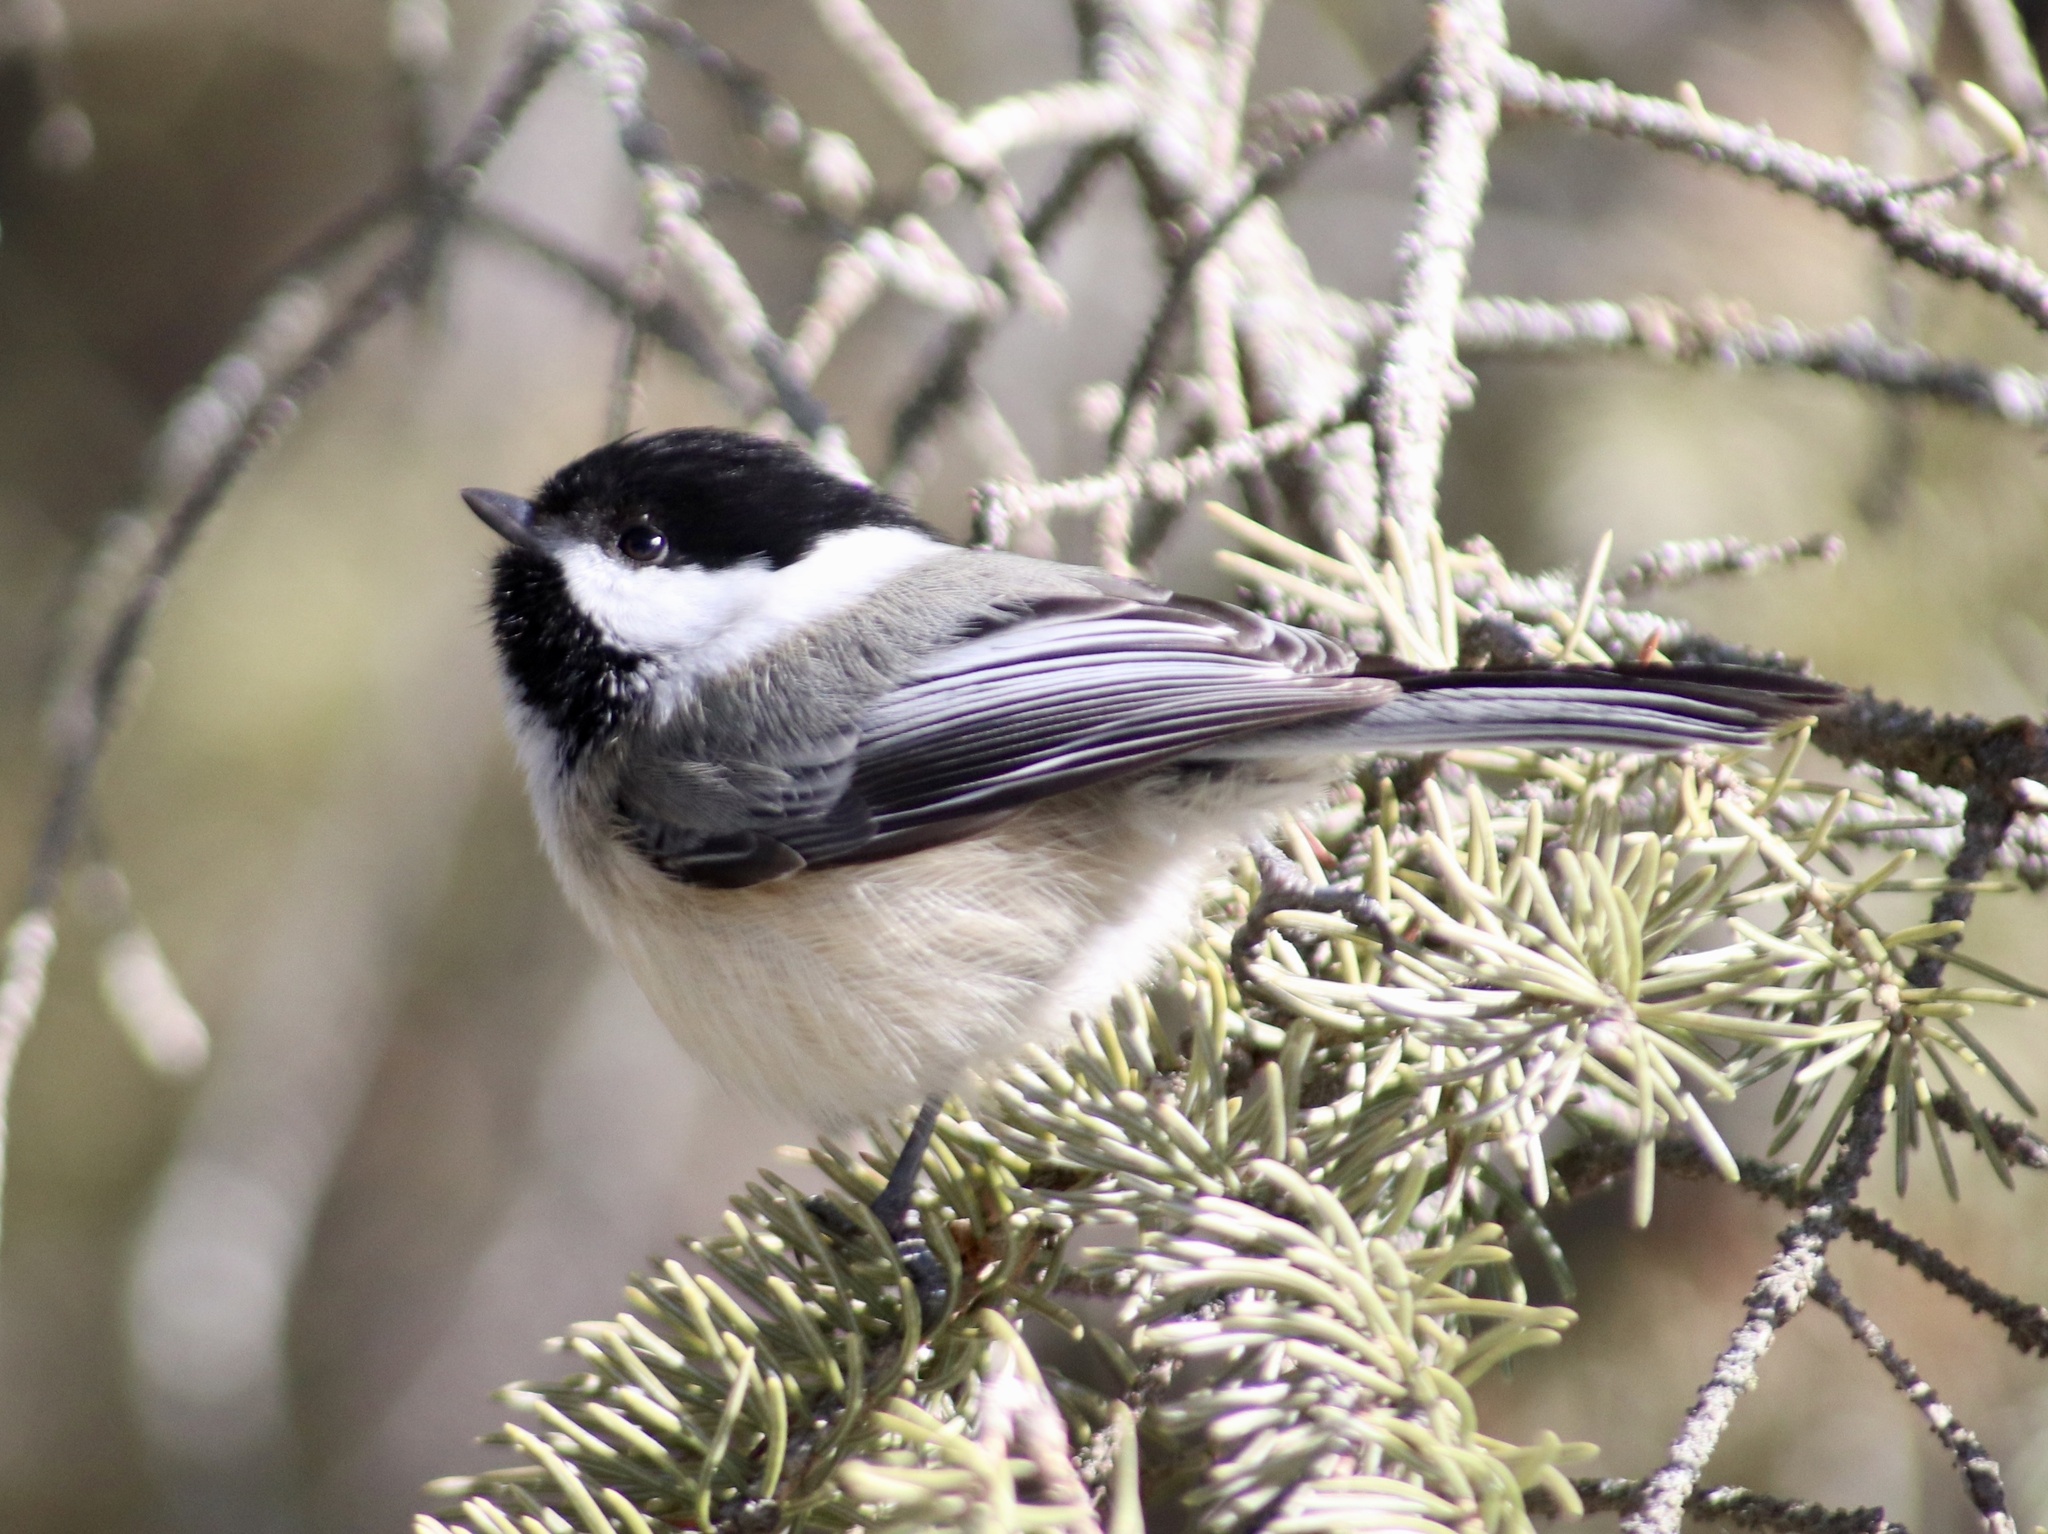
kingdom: Animalia
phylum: Chordata
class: Aves
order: Passeriformes
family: Paridae
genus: Poecile
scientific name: Poecile atricapillus
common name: Black-capped chickadee
